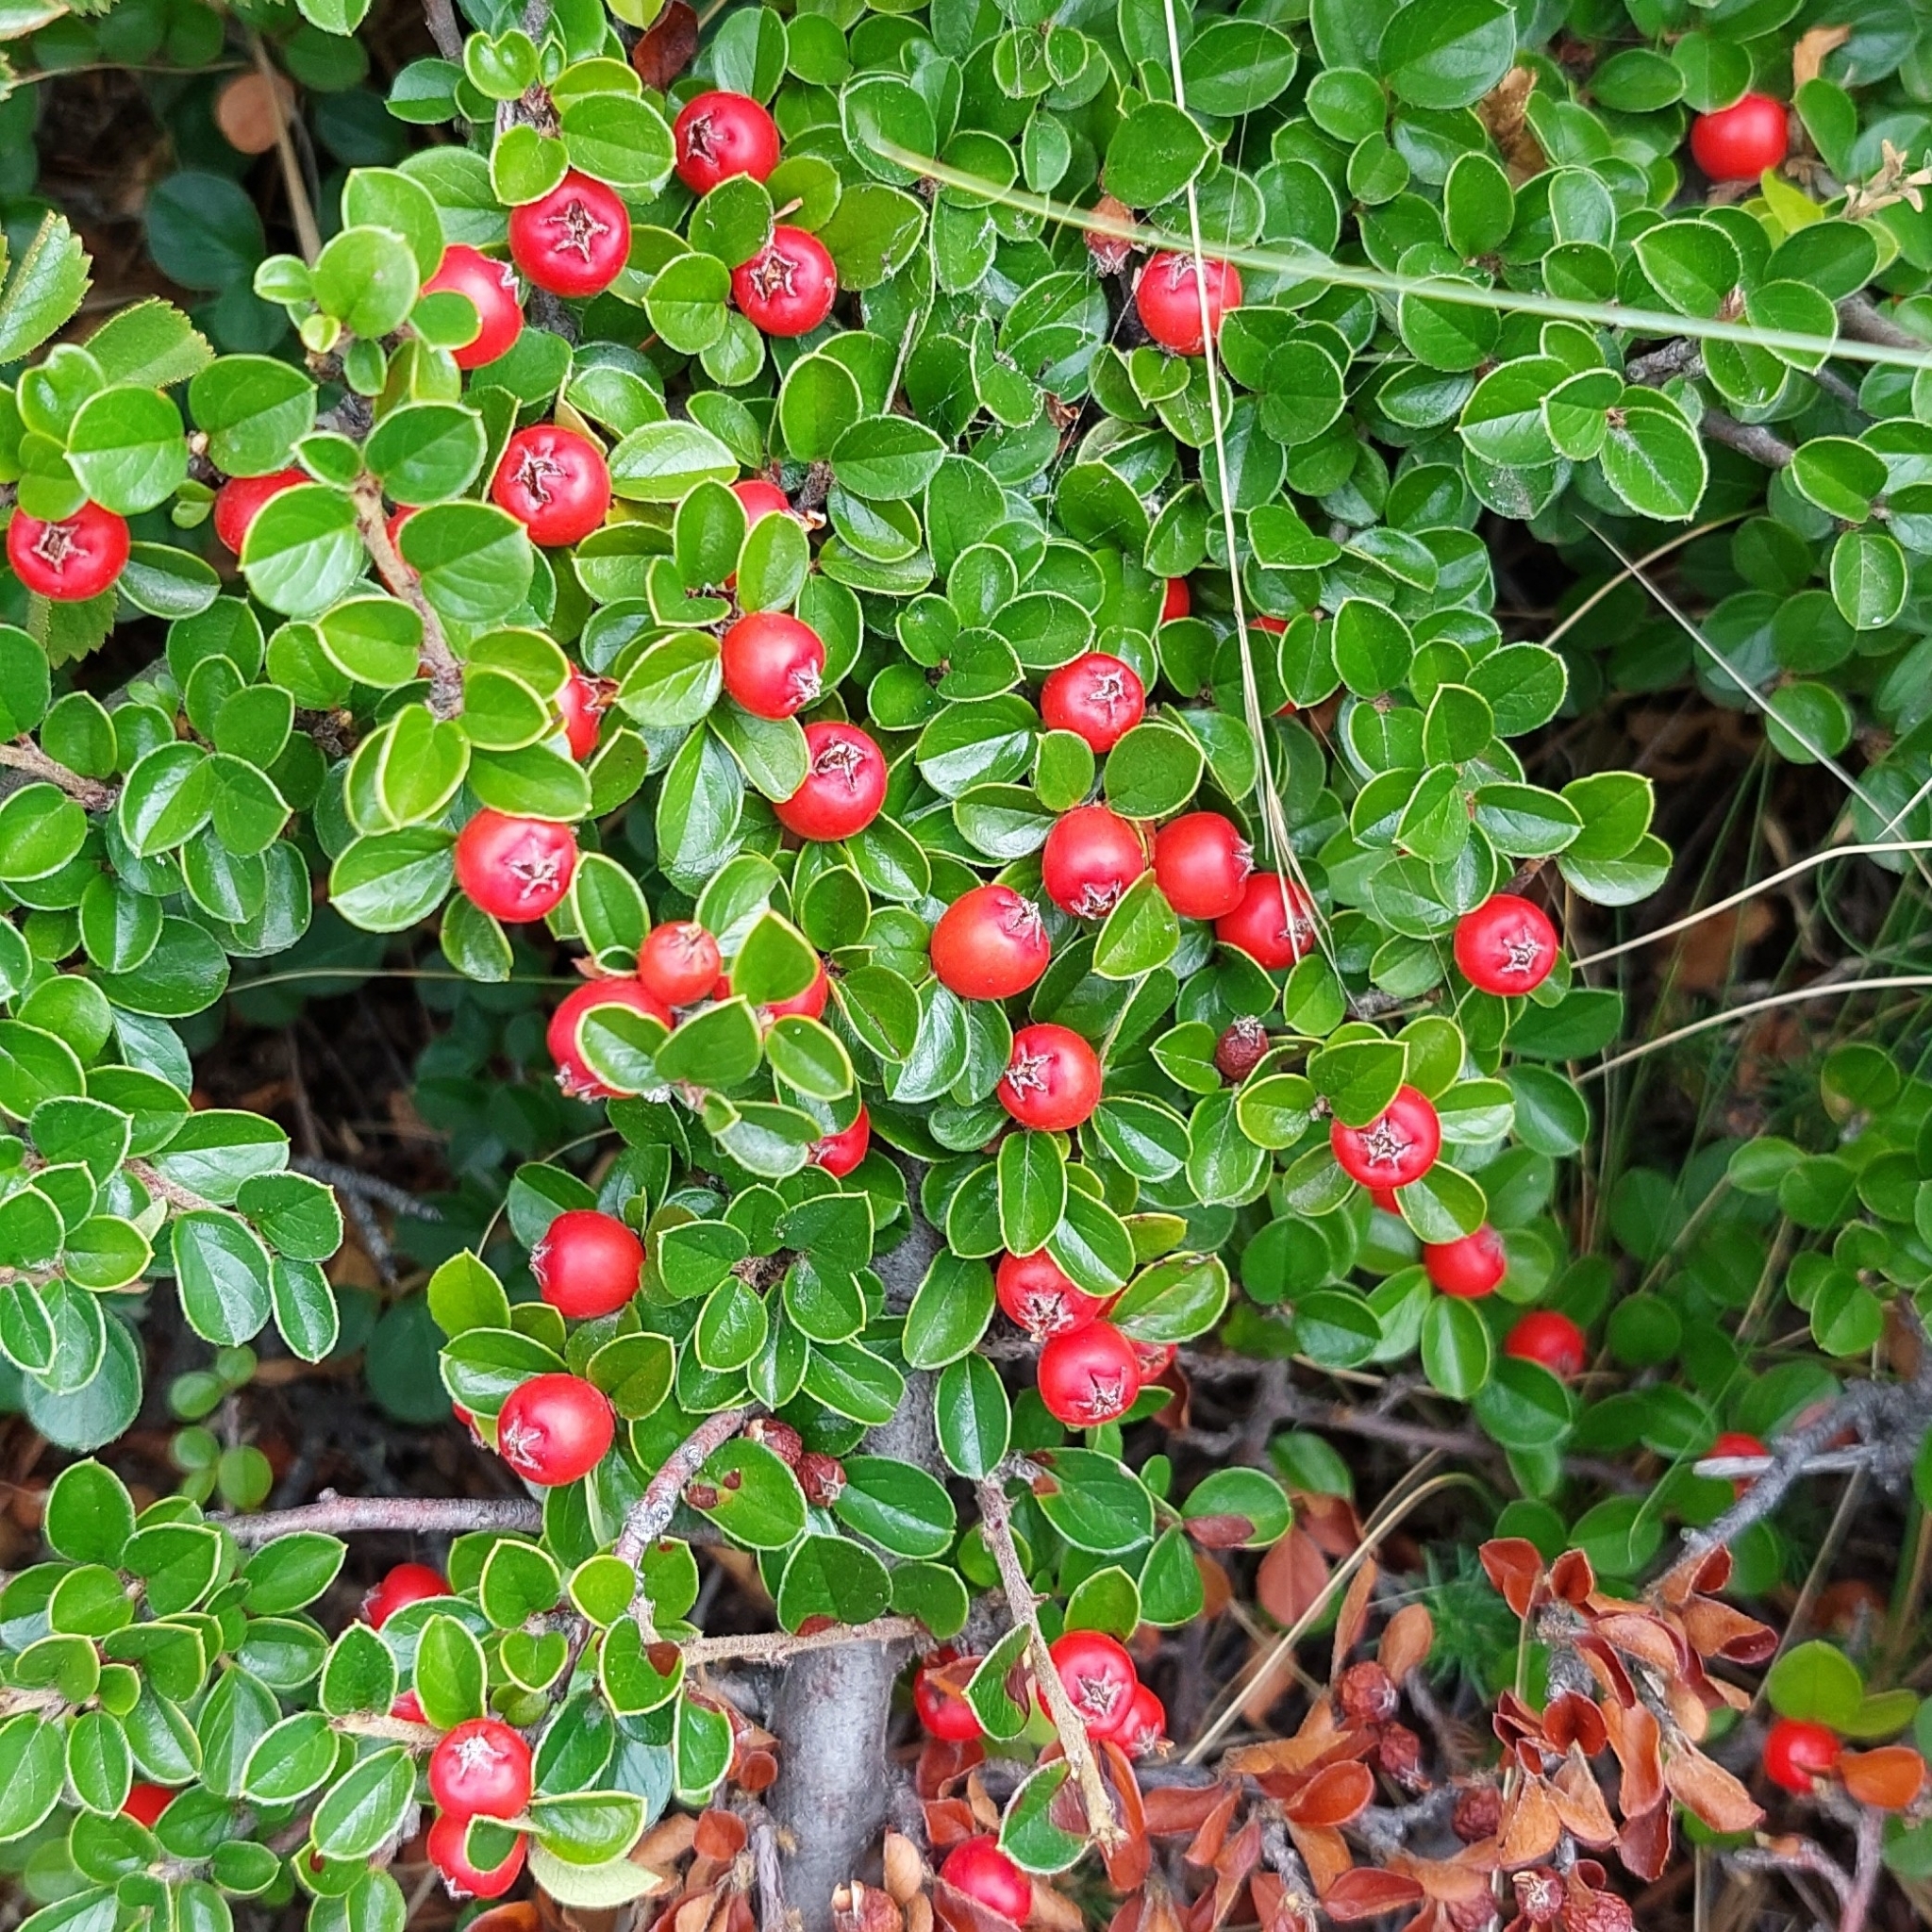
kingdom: Plantae
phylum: Tracheophyta
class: Magnoliopsida
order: Rosales
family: Rosaceae
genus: Cotoneaster
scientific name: Cotoneaster hjelmqvistii
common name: Hjelmqvist's cotoneaster
